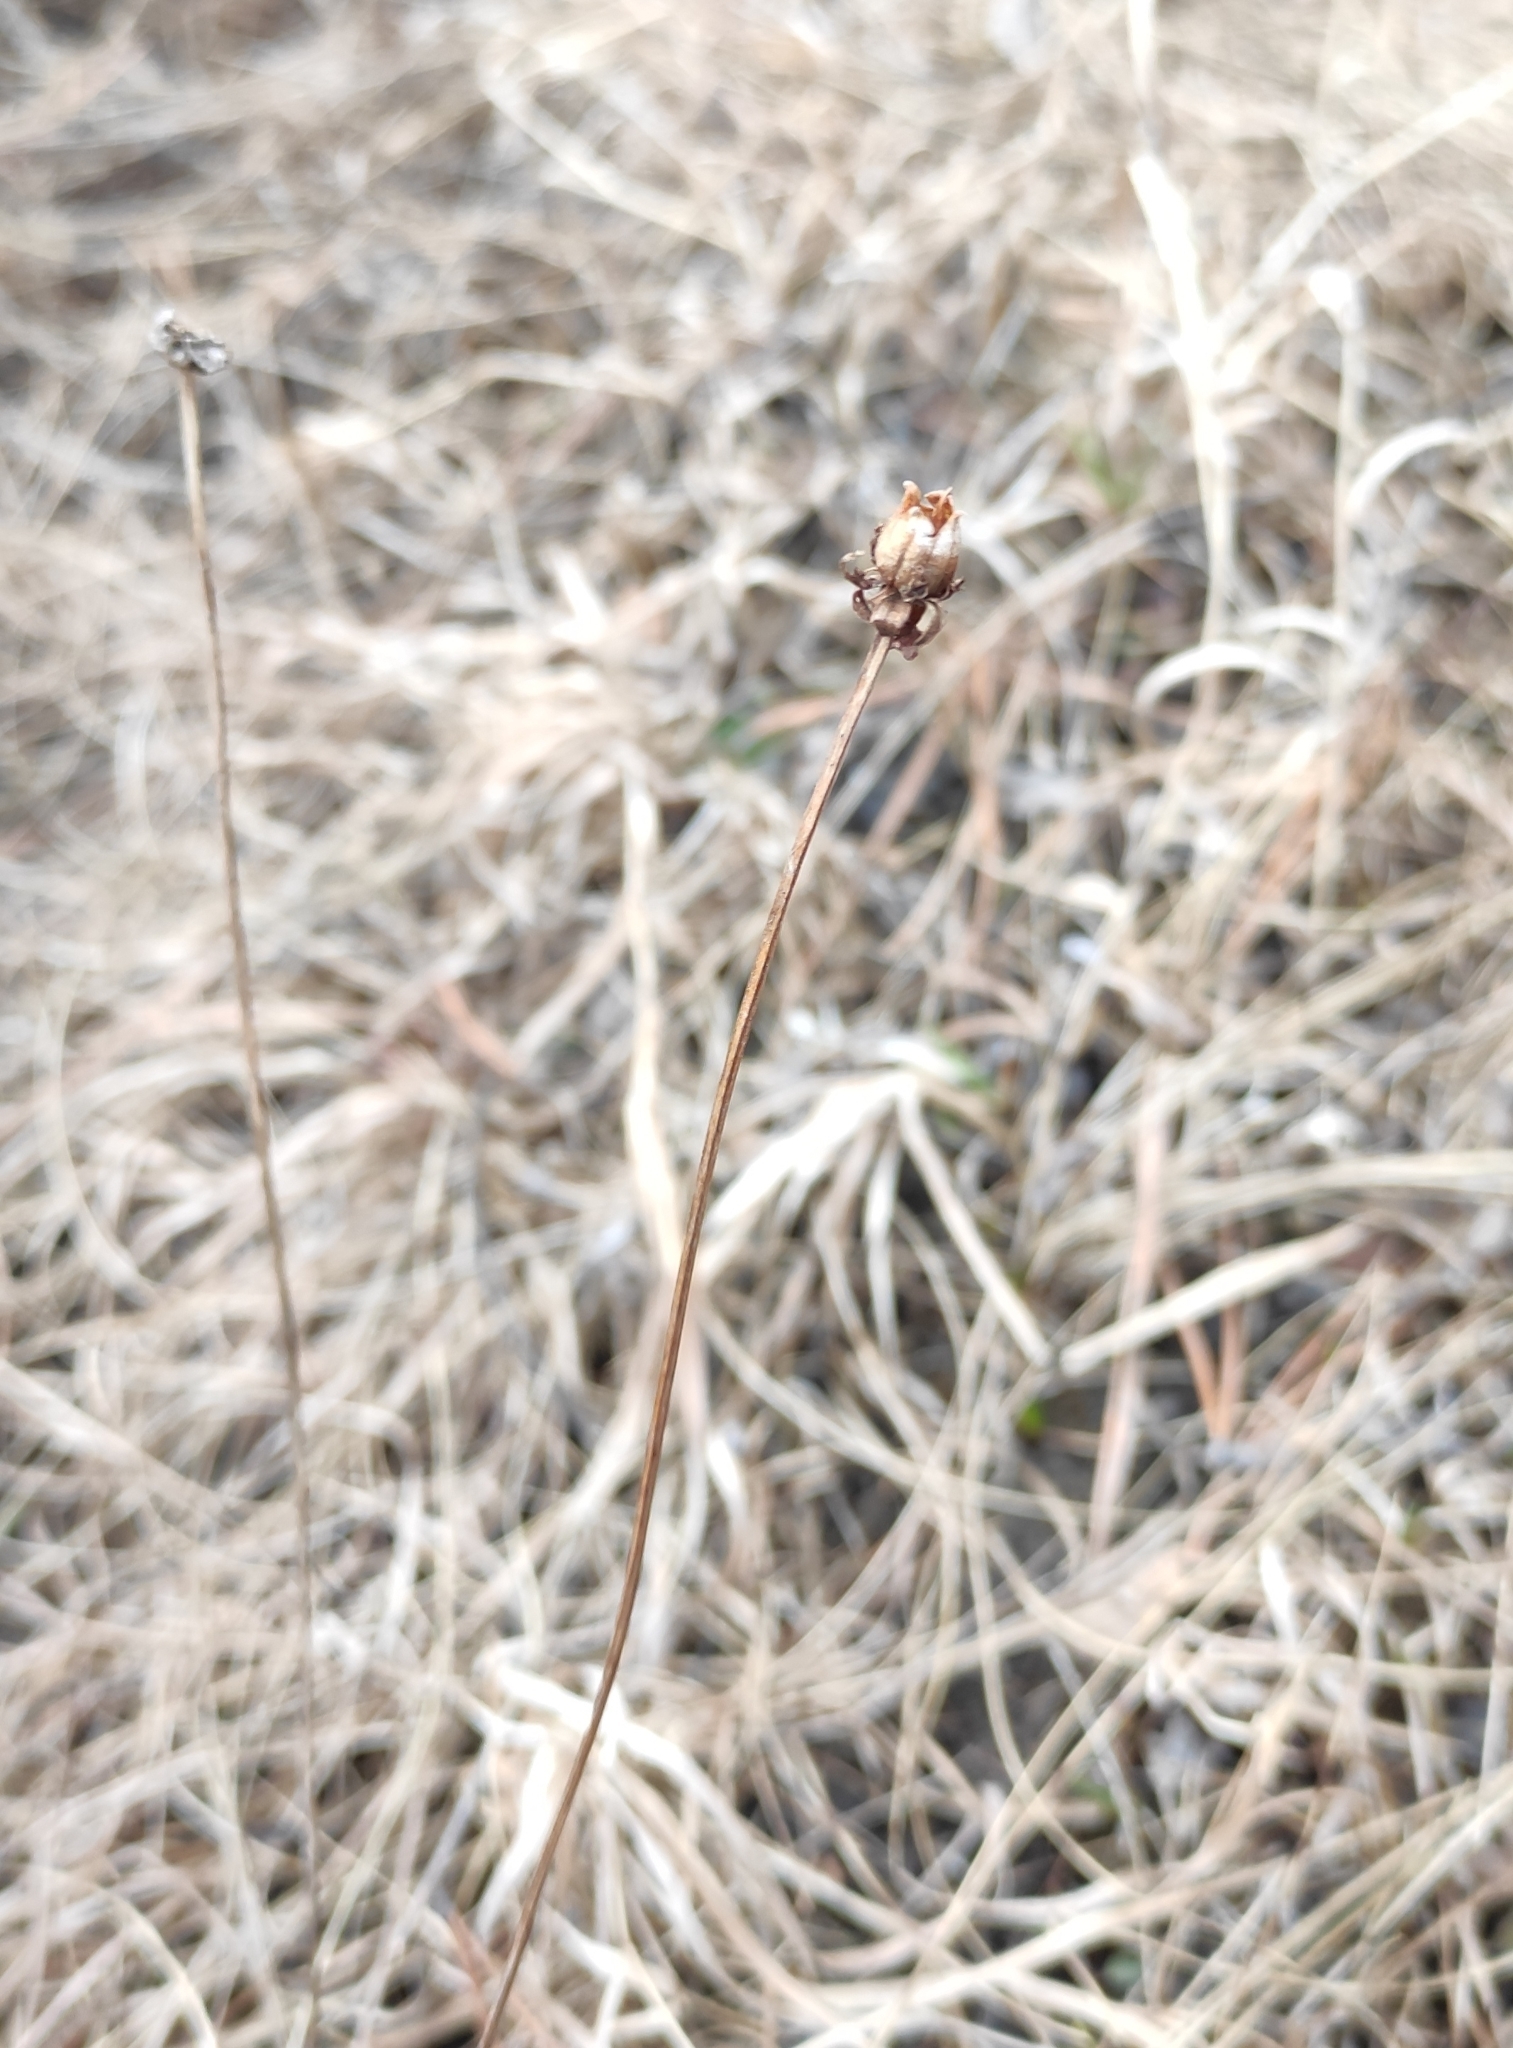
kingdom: Plantae
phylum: Tracheophyta
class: Magnoliopsida
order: Celastrales
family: Parnassiaceae
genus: Parnassia
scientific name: Parnassia palustris
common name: Grass-of-parnassus
